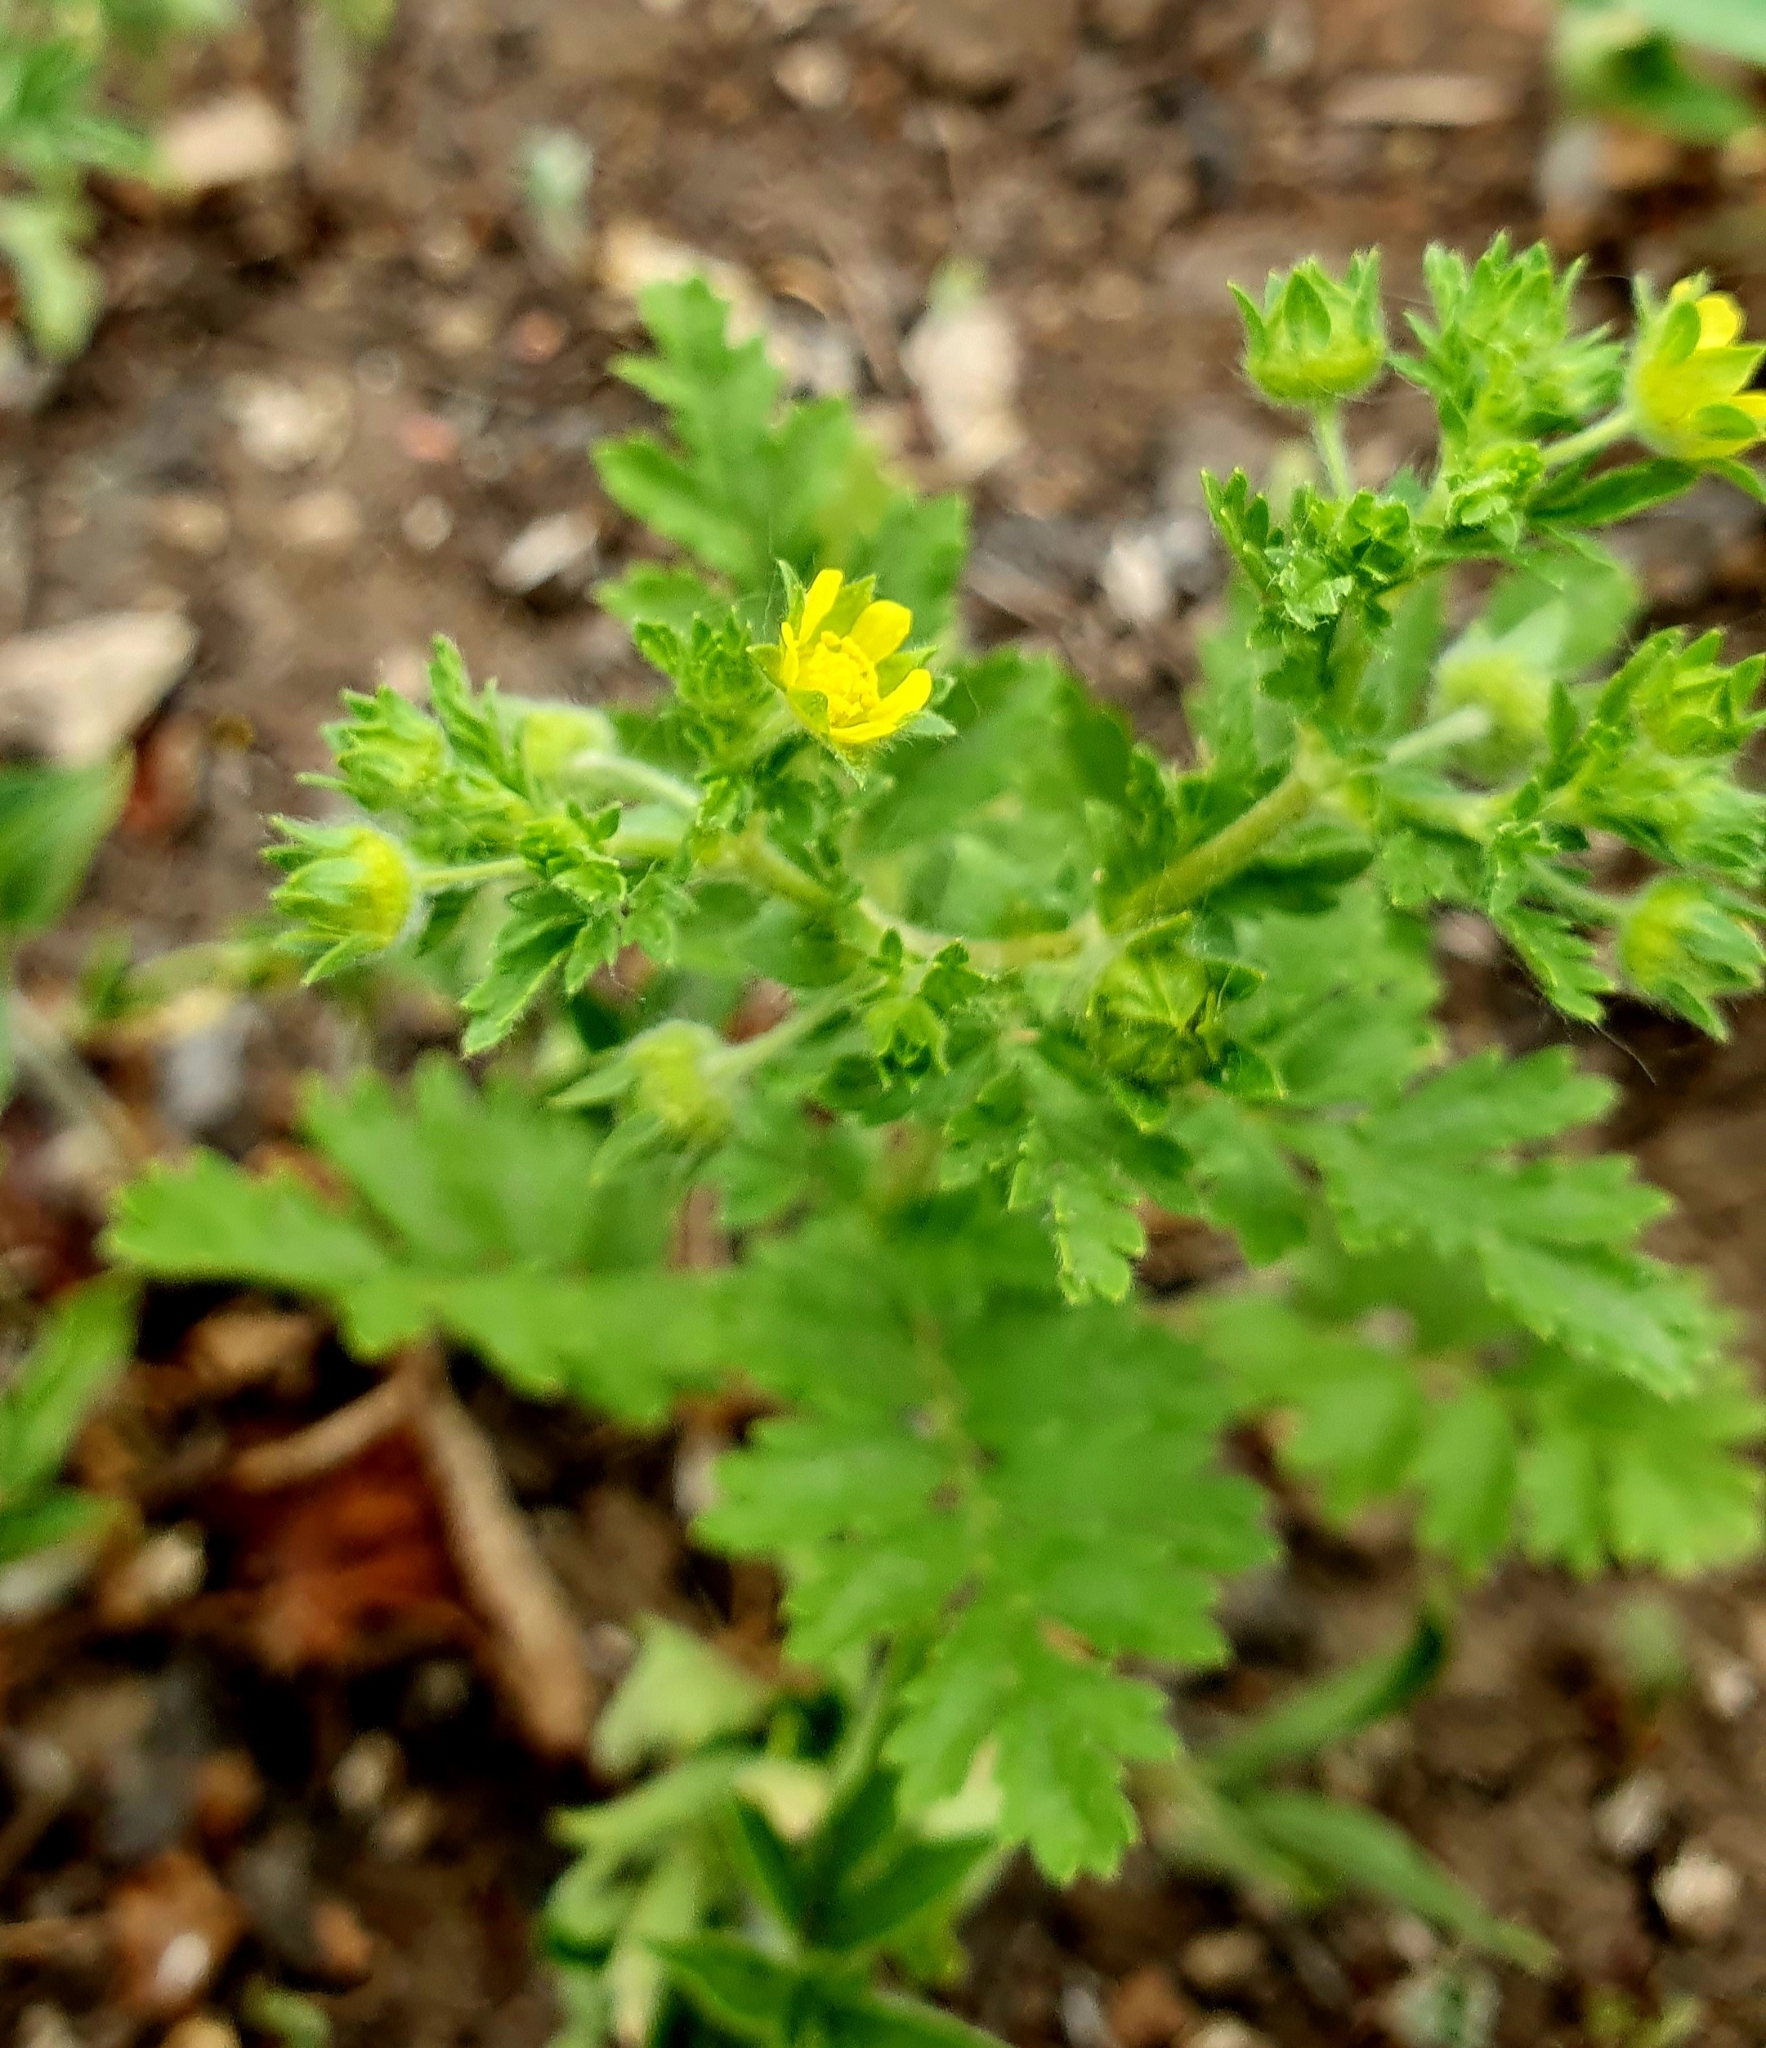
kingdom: Plantae
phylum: Tracheophyta
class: Magnoliopsida
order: Rosales
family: Rosaceae
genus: Potentilla
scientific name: Potentilla supina
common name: Prostrate cinquefoil
